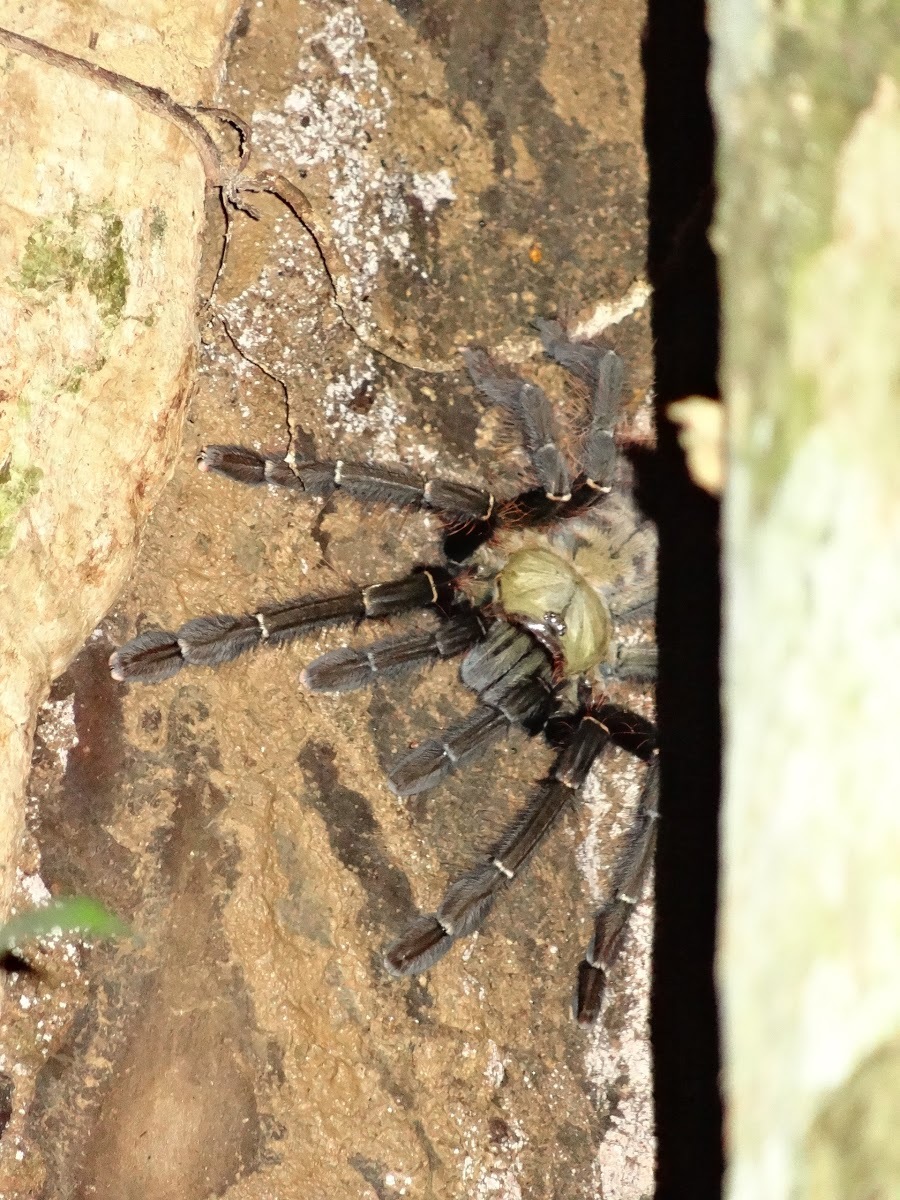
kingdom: Animalia
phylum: Arthropoda
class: Arachnida
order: Araneae
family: Theraphosidae
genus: Omothymus
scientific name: Omothymus schioedtei
